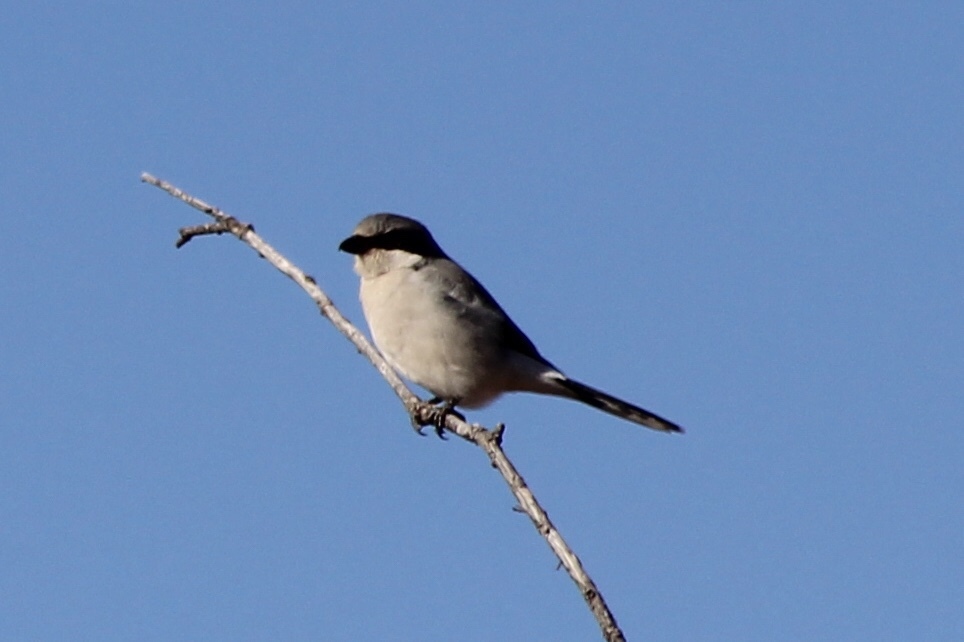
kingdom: Animalia
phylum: Chordata
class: Aves
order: Passeriformes
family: Laniidae
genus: Lanius
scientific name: Lanius ludovicianus
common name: Loggerhead shrike
